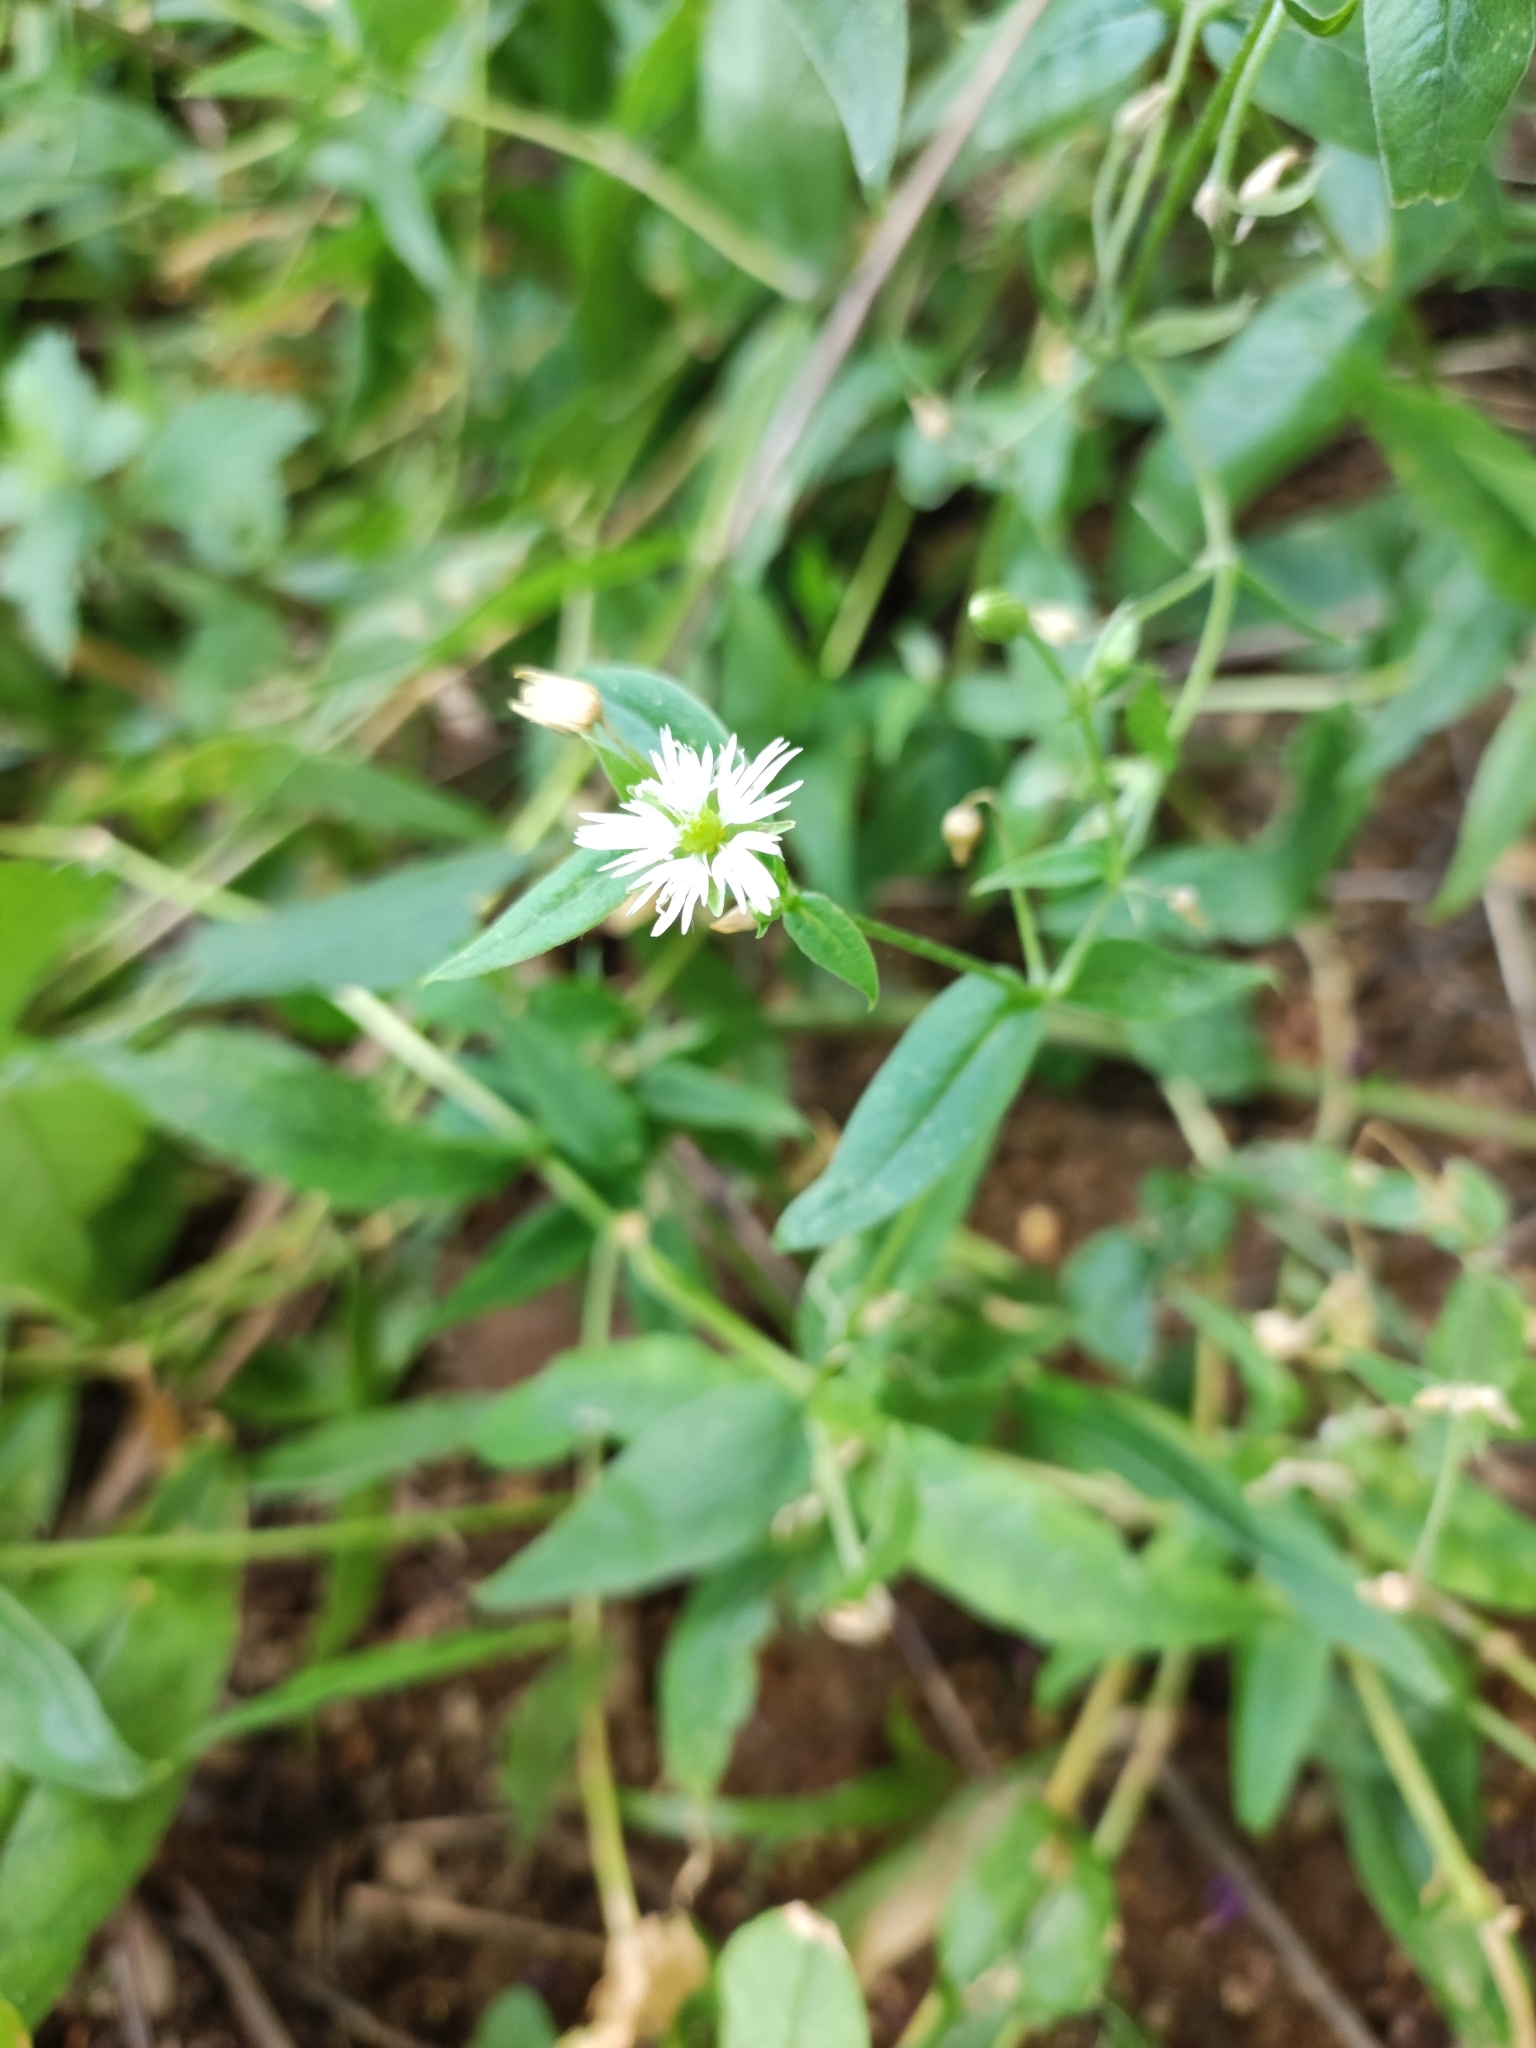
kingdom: Plantae
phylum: Tracheophyta
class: Magnoliopsida
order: Caryophyllales
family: Caryophyllaceae
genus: Stellaria
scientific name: Stellaria radians
